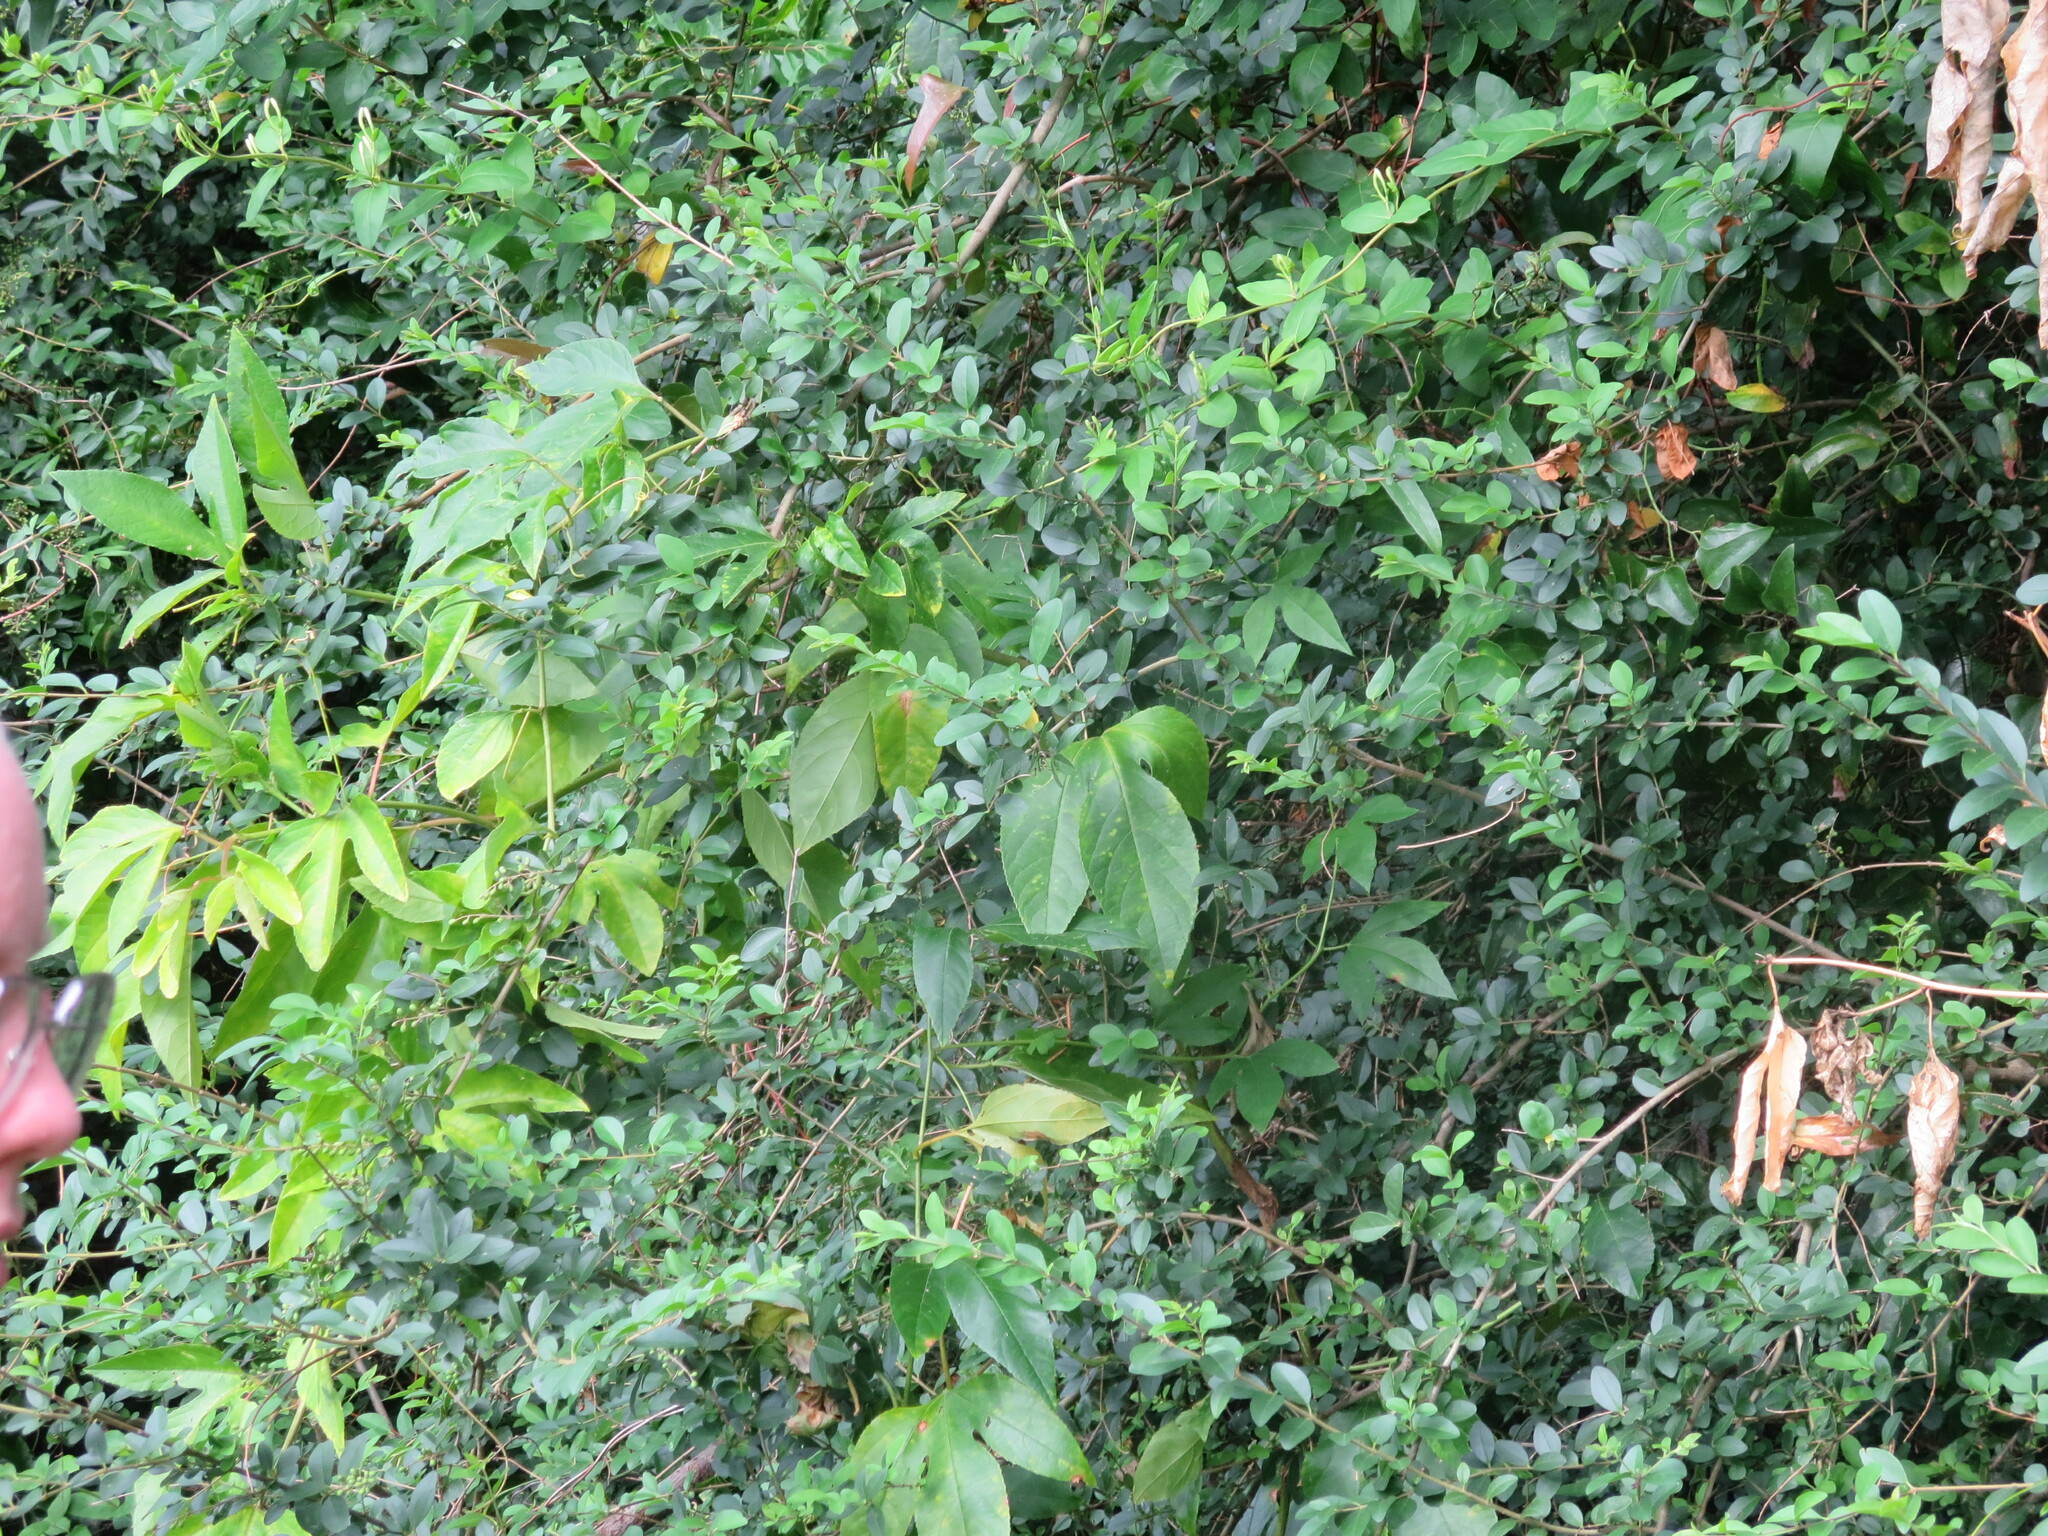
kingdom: Plantae
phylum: Tracheophyta
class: Magnoliopsida
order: Malpighiales
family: Passifloraceae
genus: Passiflora
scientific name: Passiflora incarnata
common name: Apricot-vine
